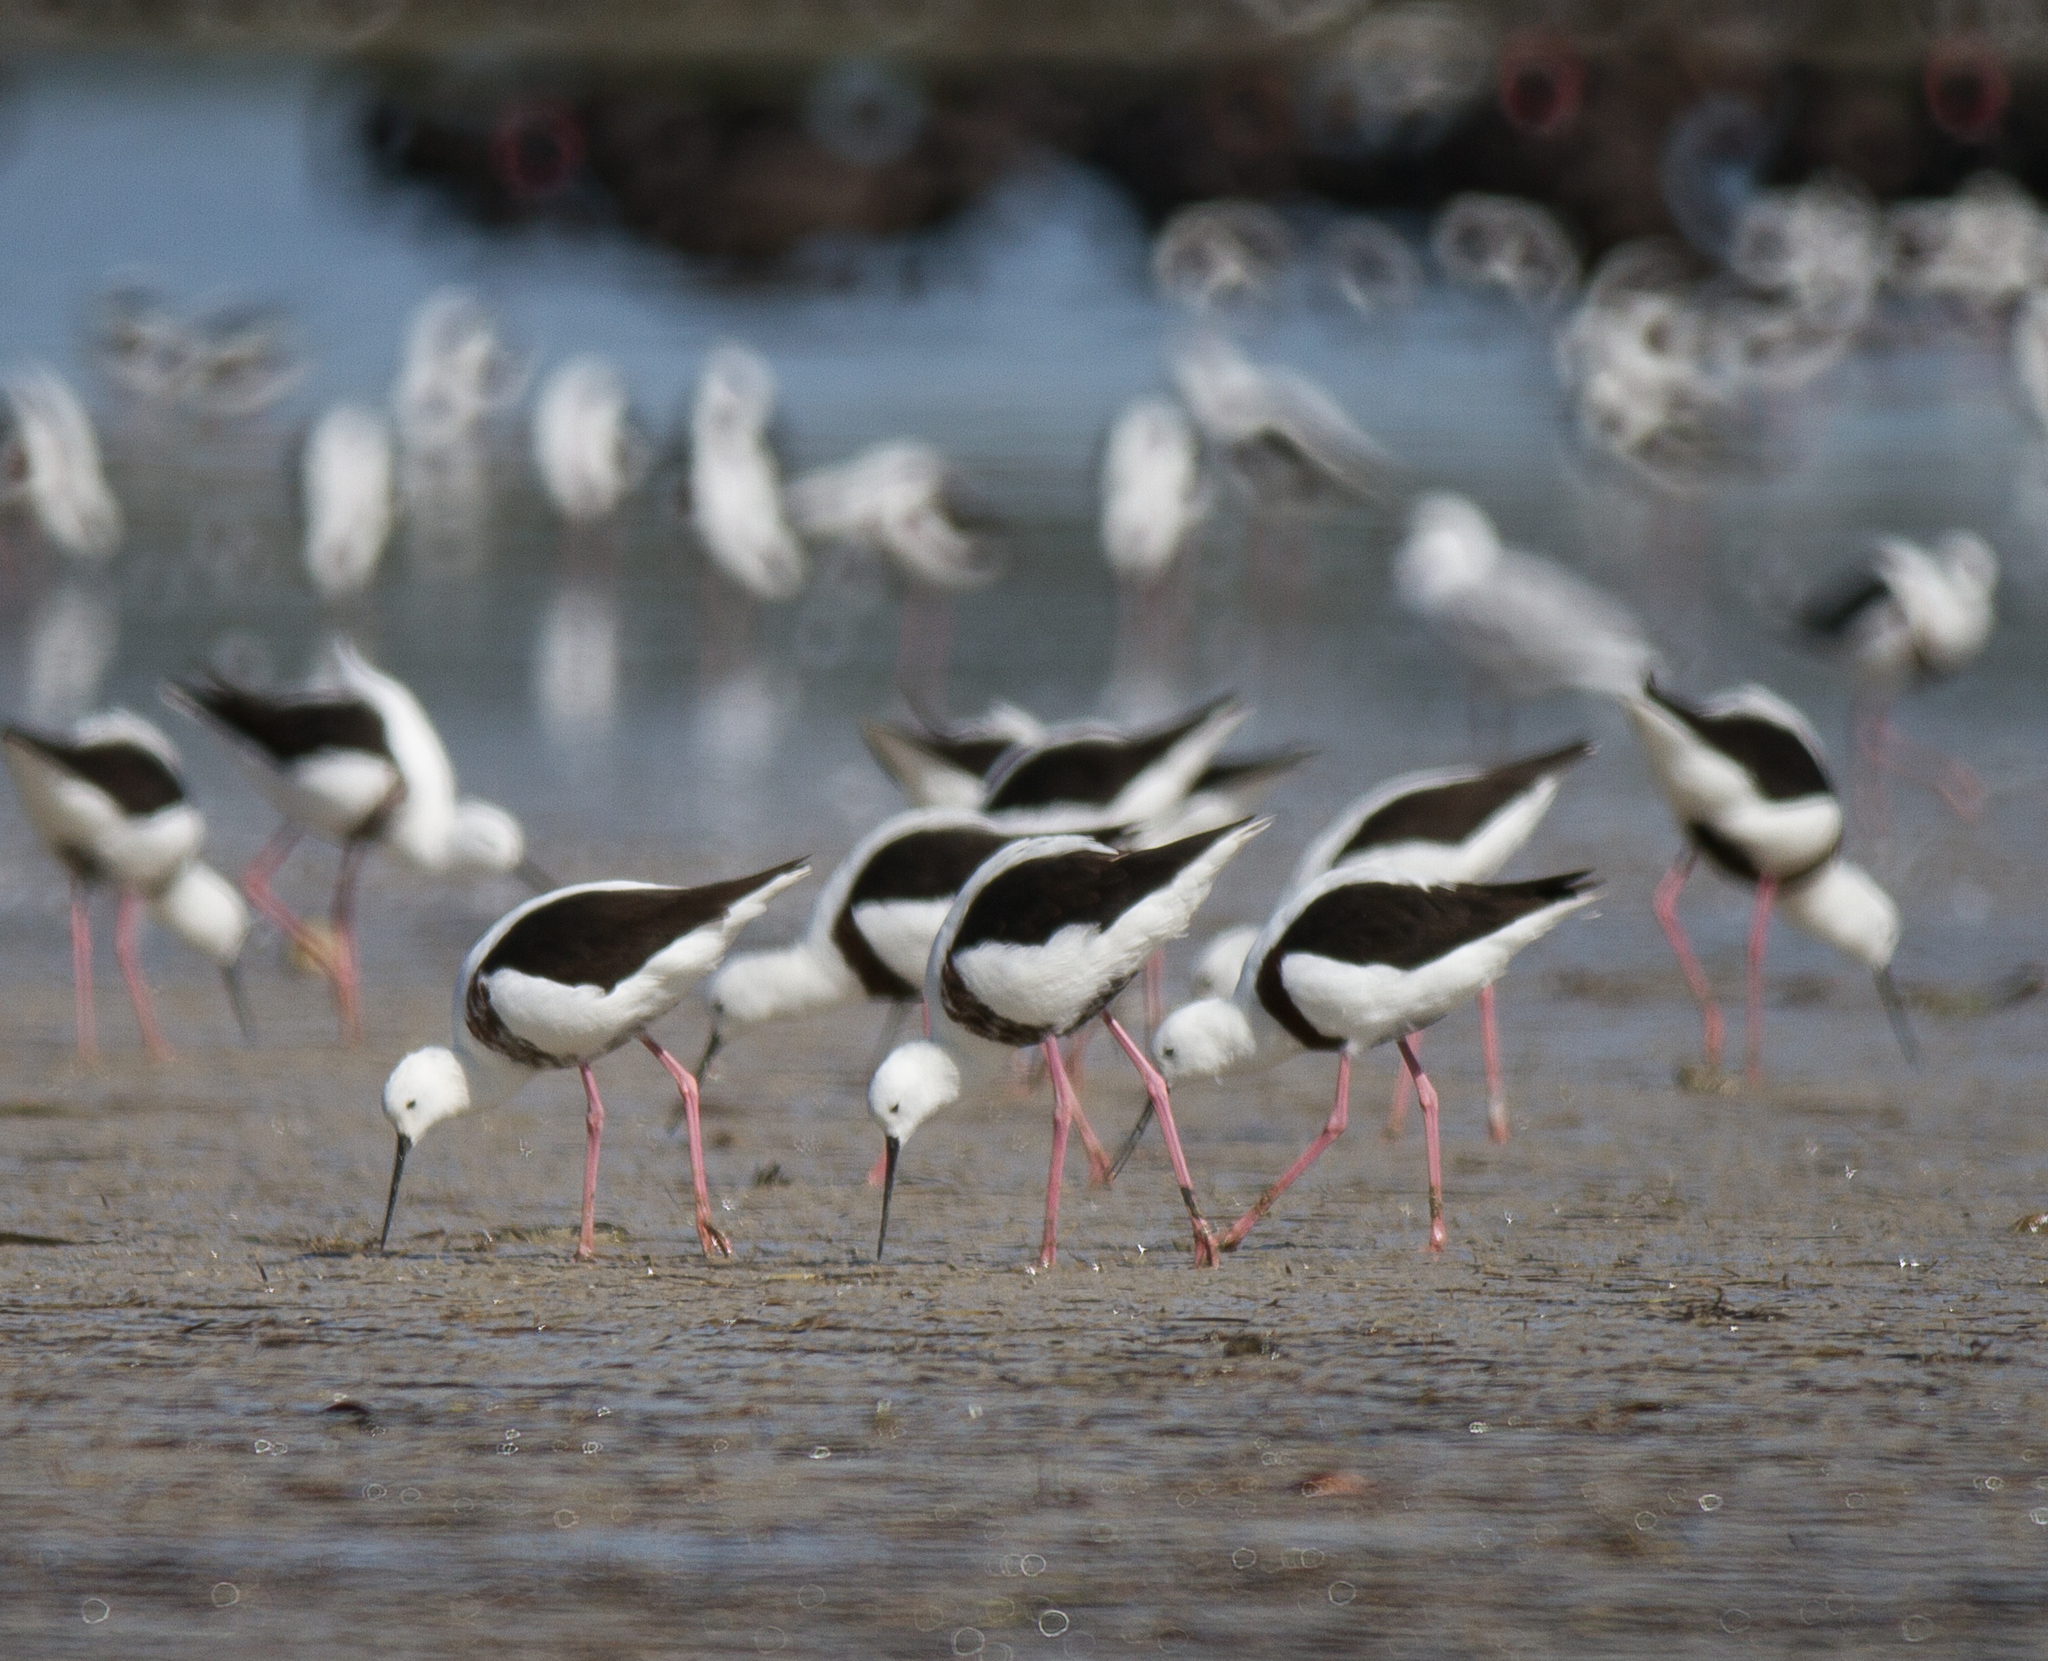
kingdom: Animalia
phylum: Chordata
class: Aves
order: Charadriiformes
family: Recurvirostridae
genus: Cladorhynchus
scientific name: Cladorhynchus leucocephalus
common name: Banded stilt
